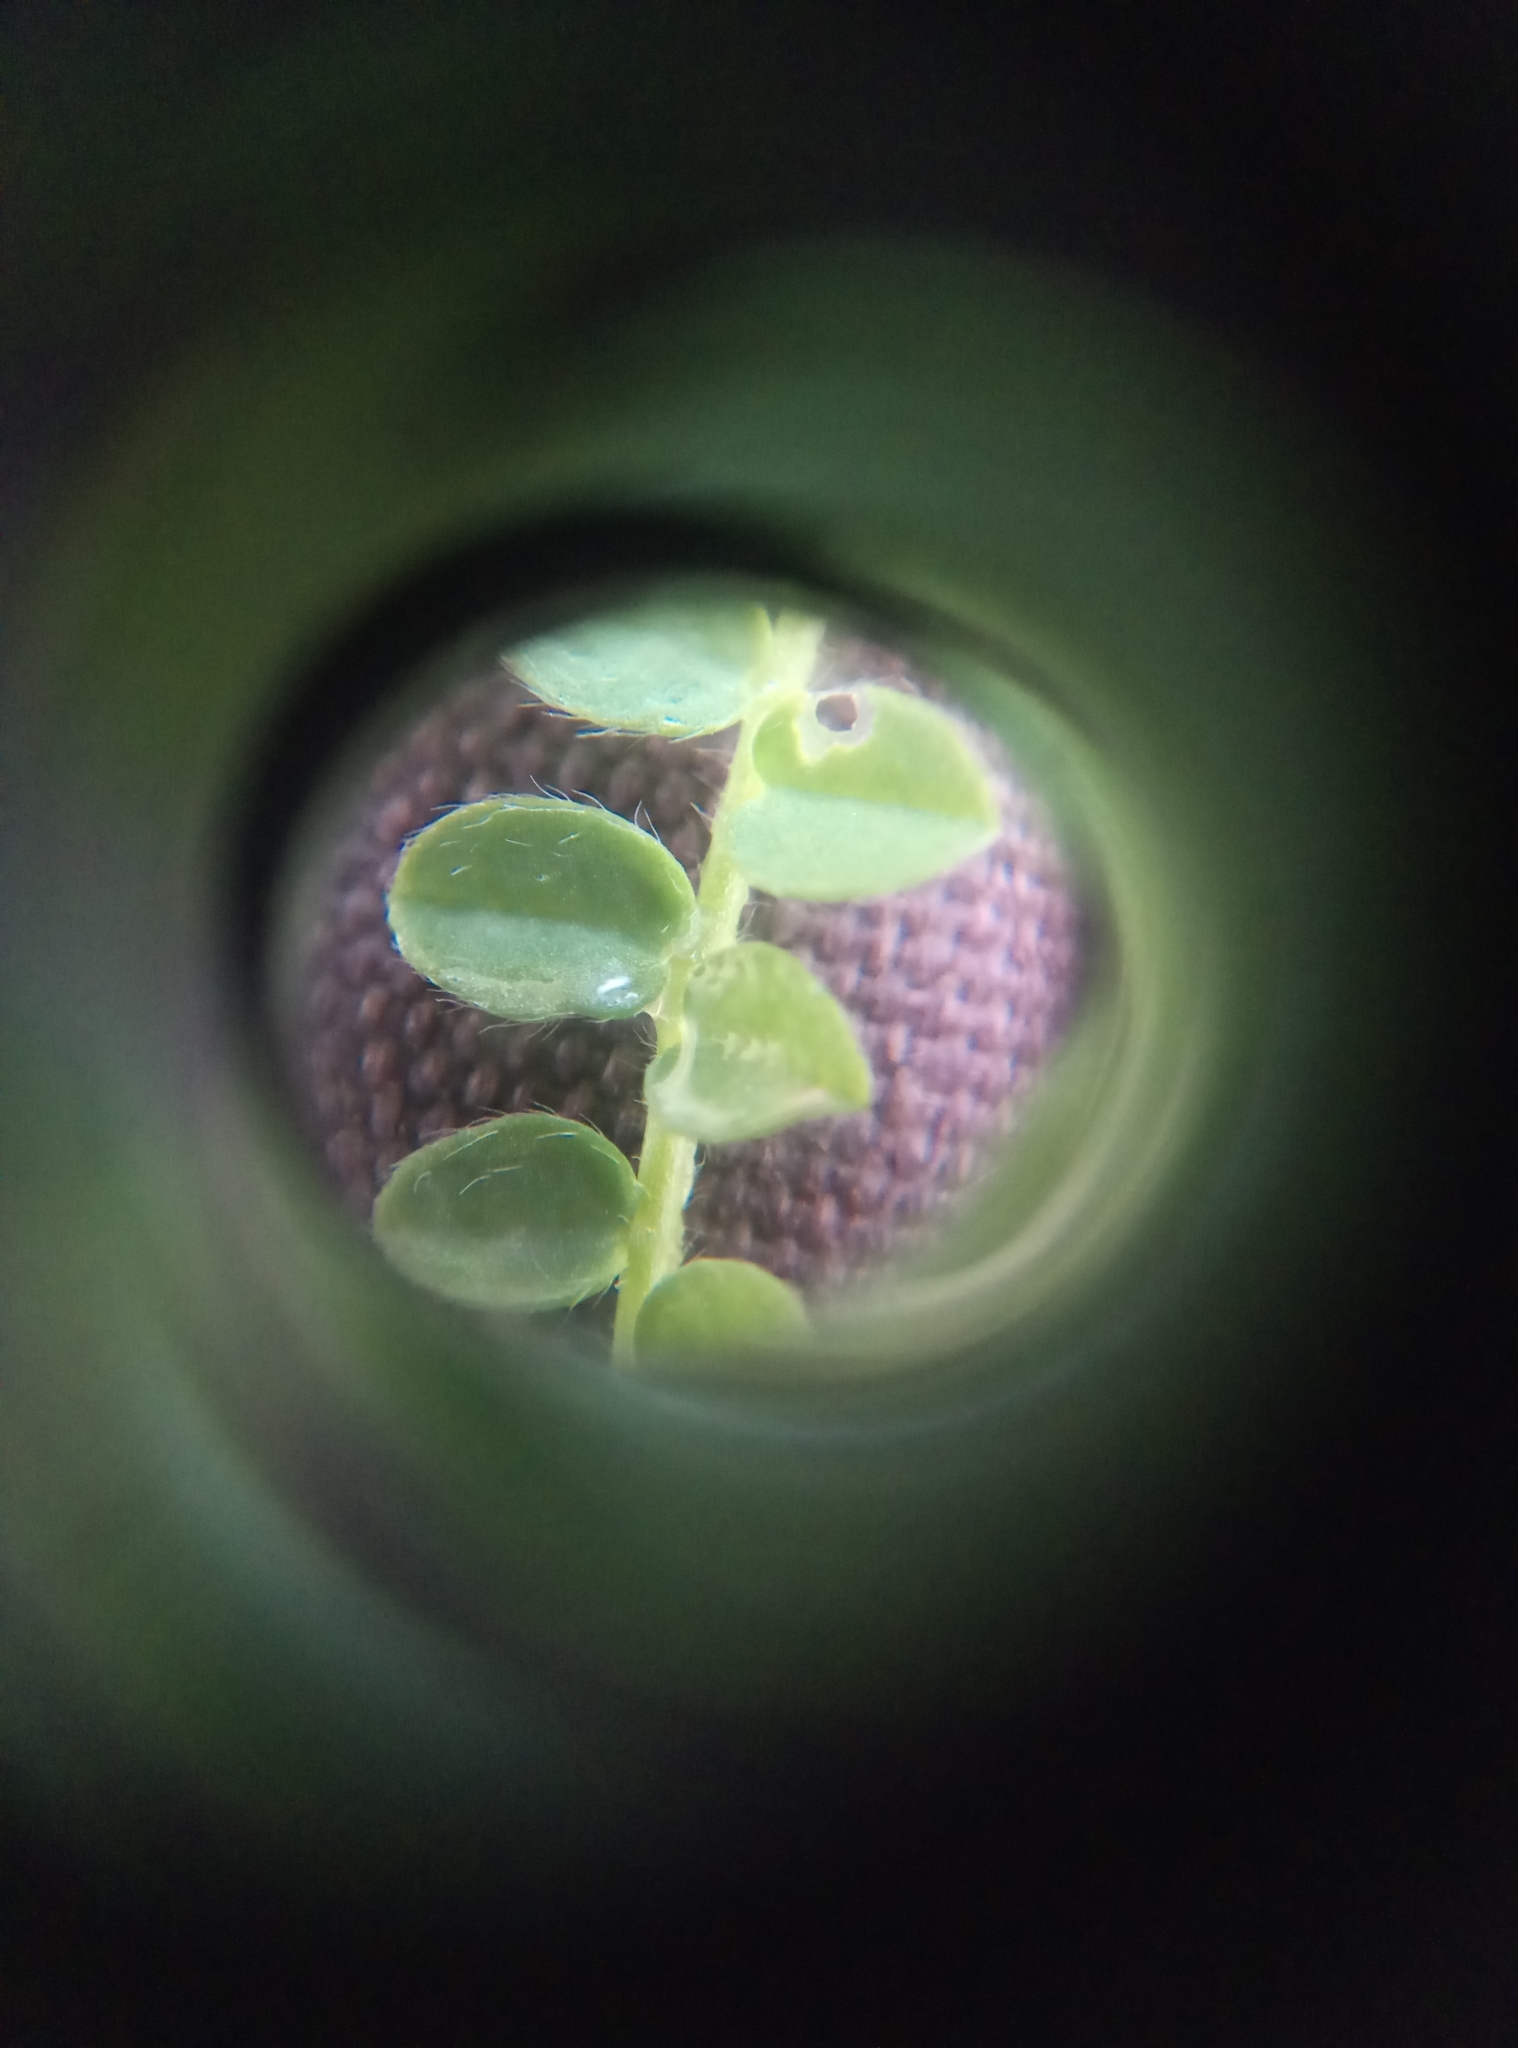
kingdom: Plantae
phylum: Tracheophyta
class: Magnoliopsida
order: Fabales
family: Fabaceae
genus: Ornithopus
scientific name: Ornithopus perpusillus
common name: Bird's-foot
